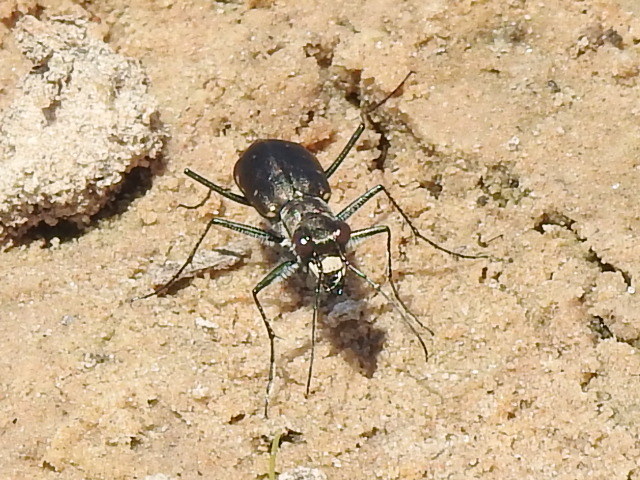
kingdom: Animalia
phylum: Arthropoda
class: Insecta
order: Coleoptera
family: Carabidae
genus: Cicindela
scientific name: Cicindela punctulata
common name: Punctured tiger beetle
